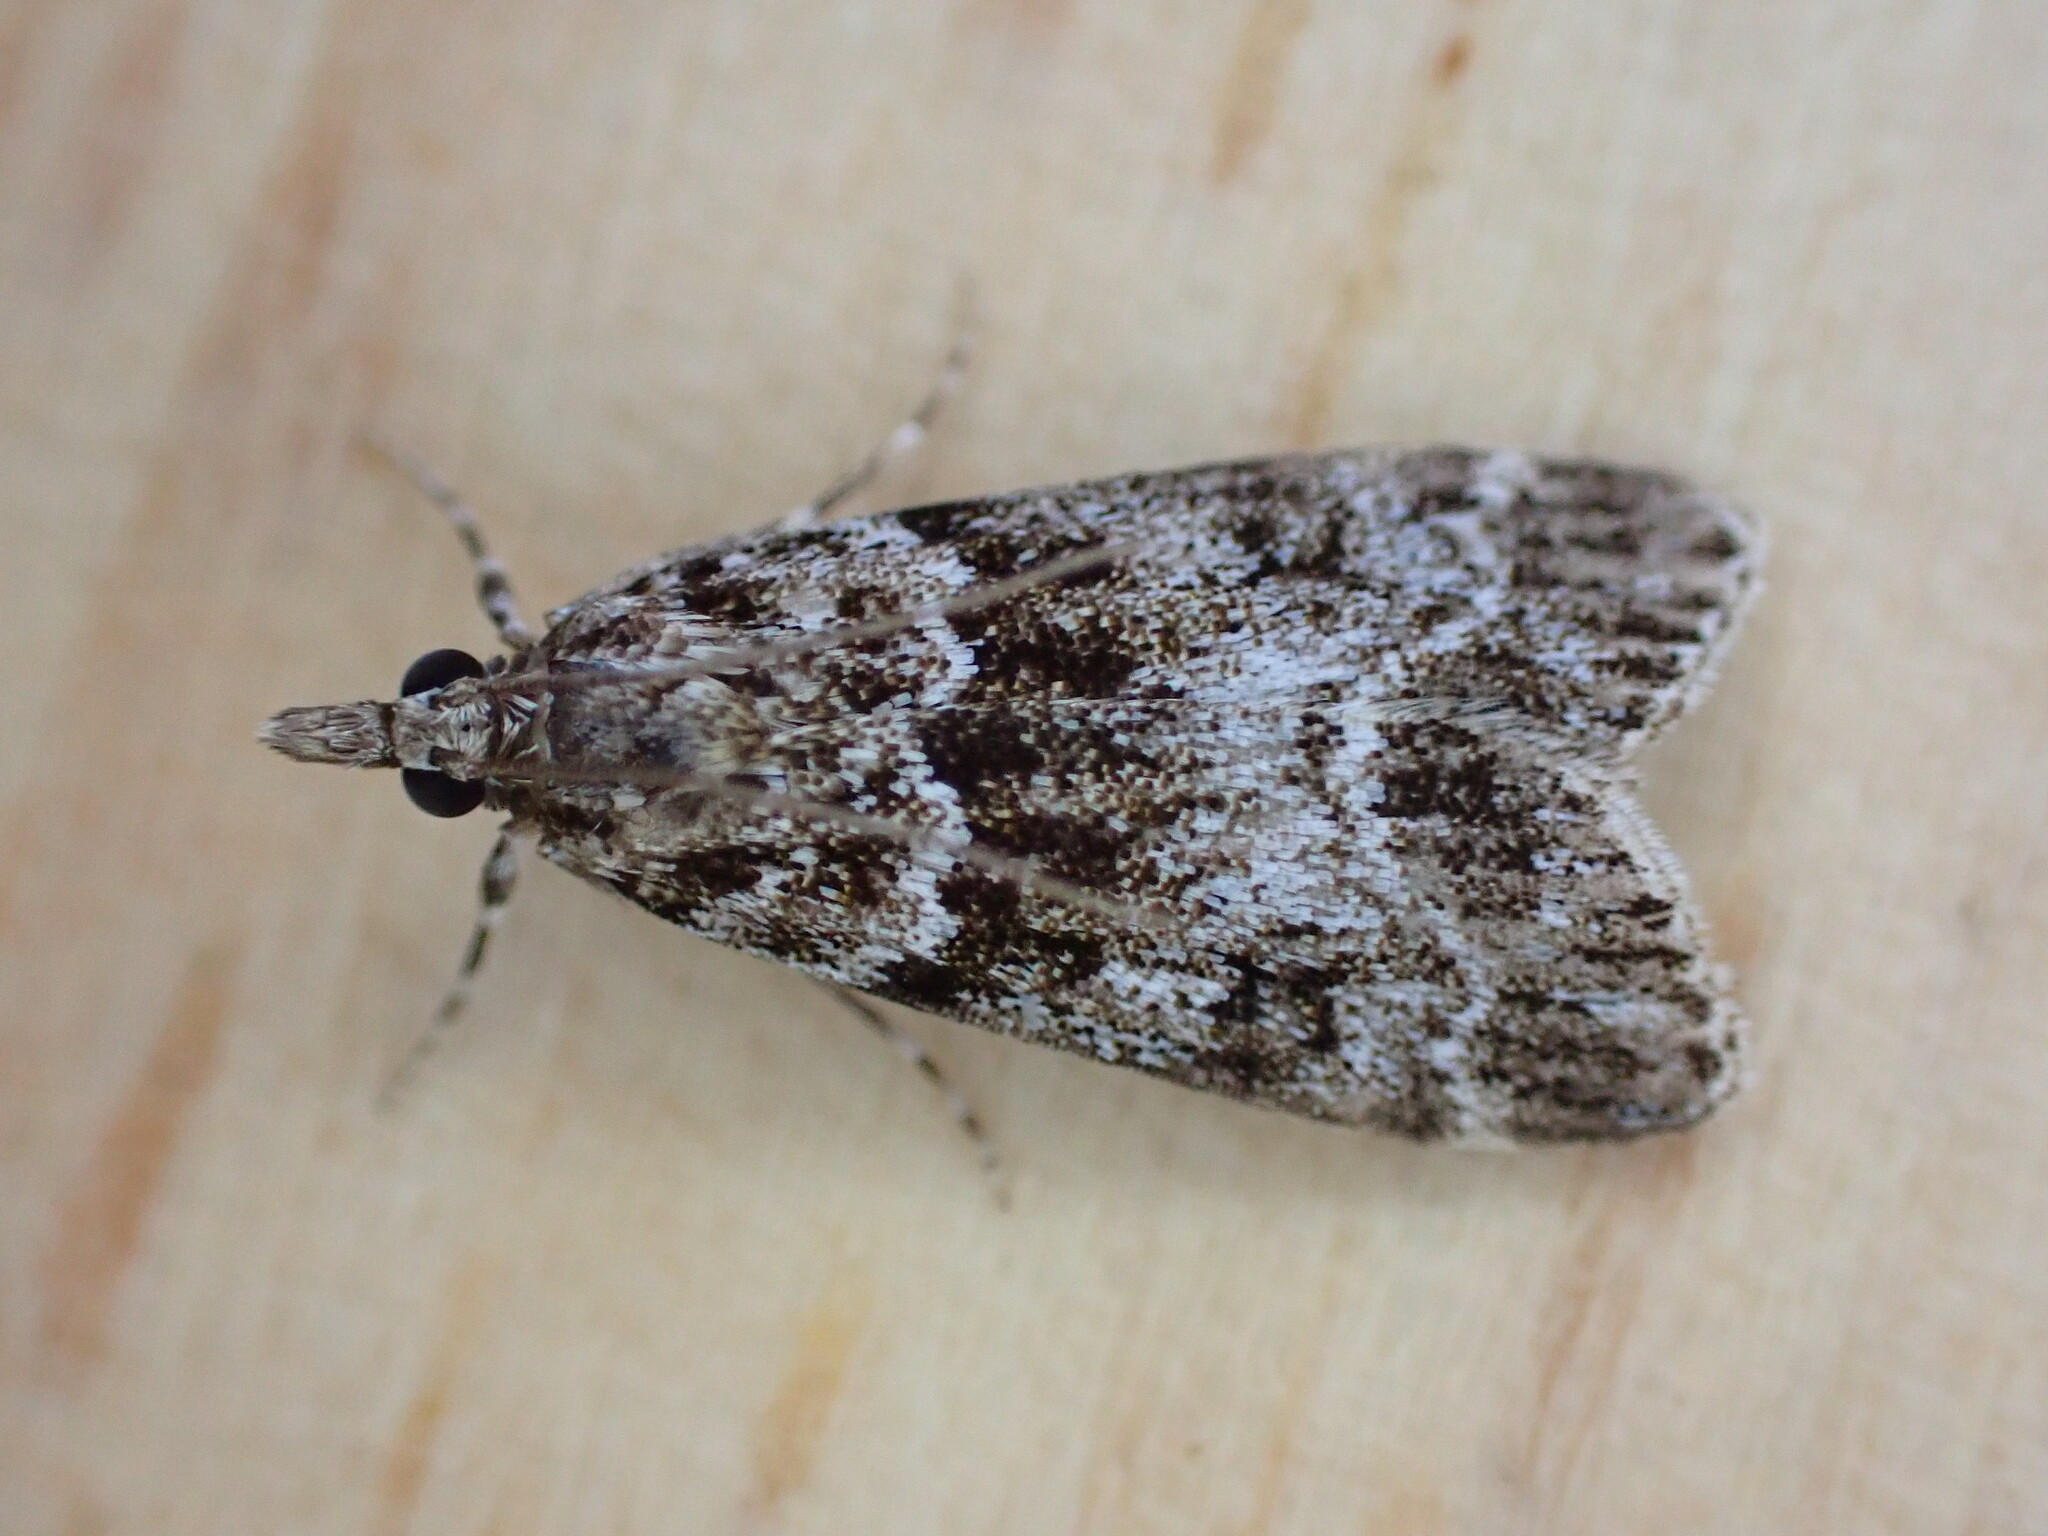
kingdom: Animalia
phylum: Arthropoda
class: Insecta
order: Lepidoptera
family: Crambidae
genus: Eudonia
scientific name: Eudonia mercurella
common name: Small grey
